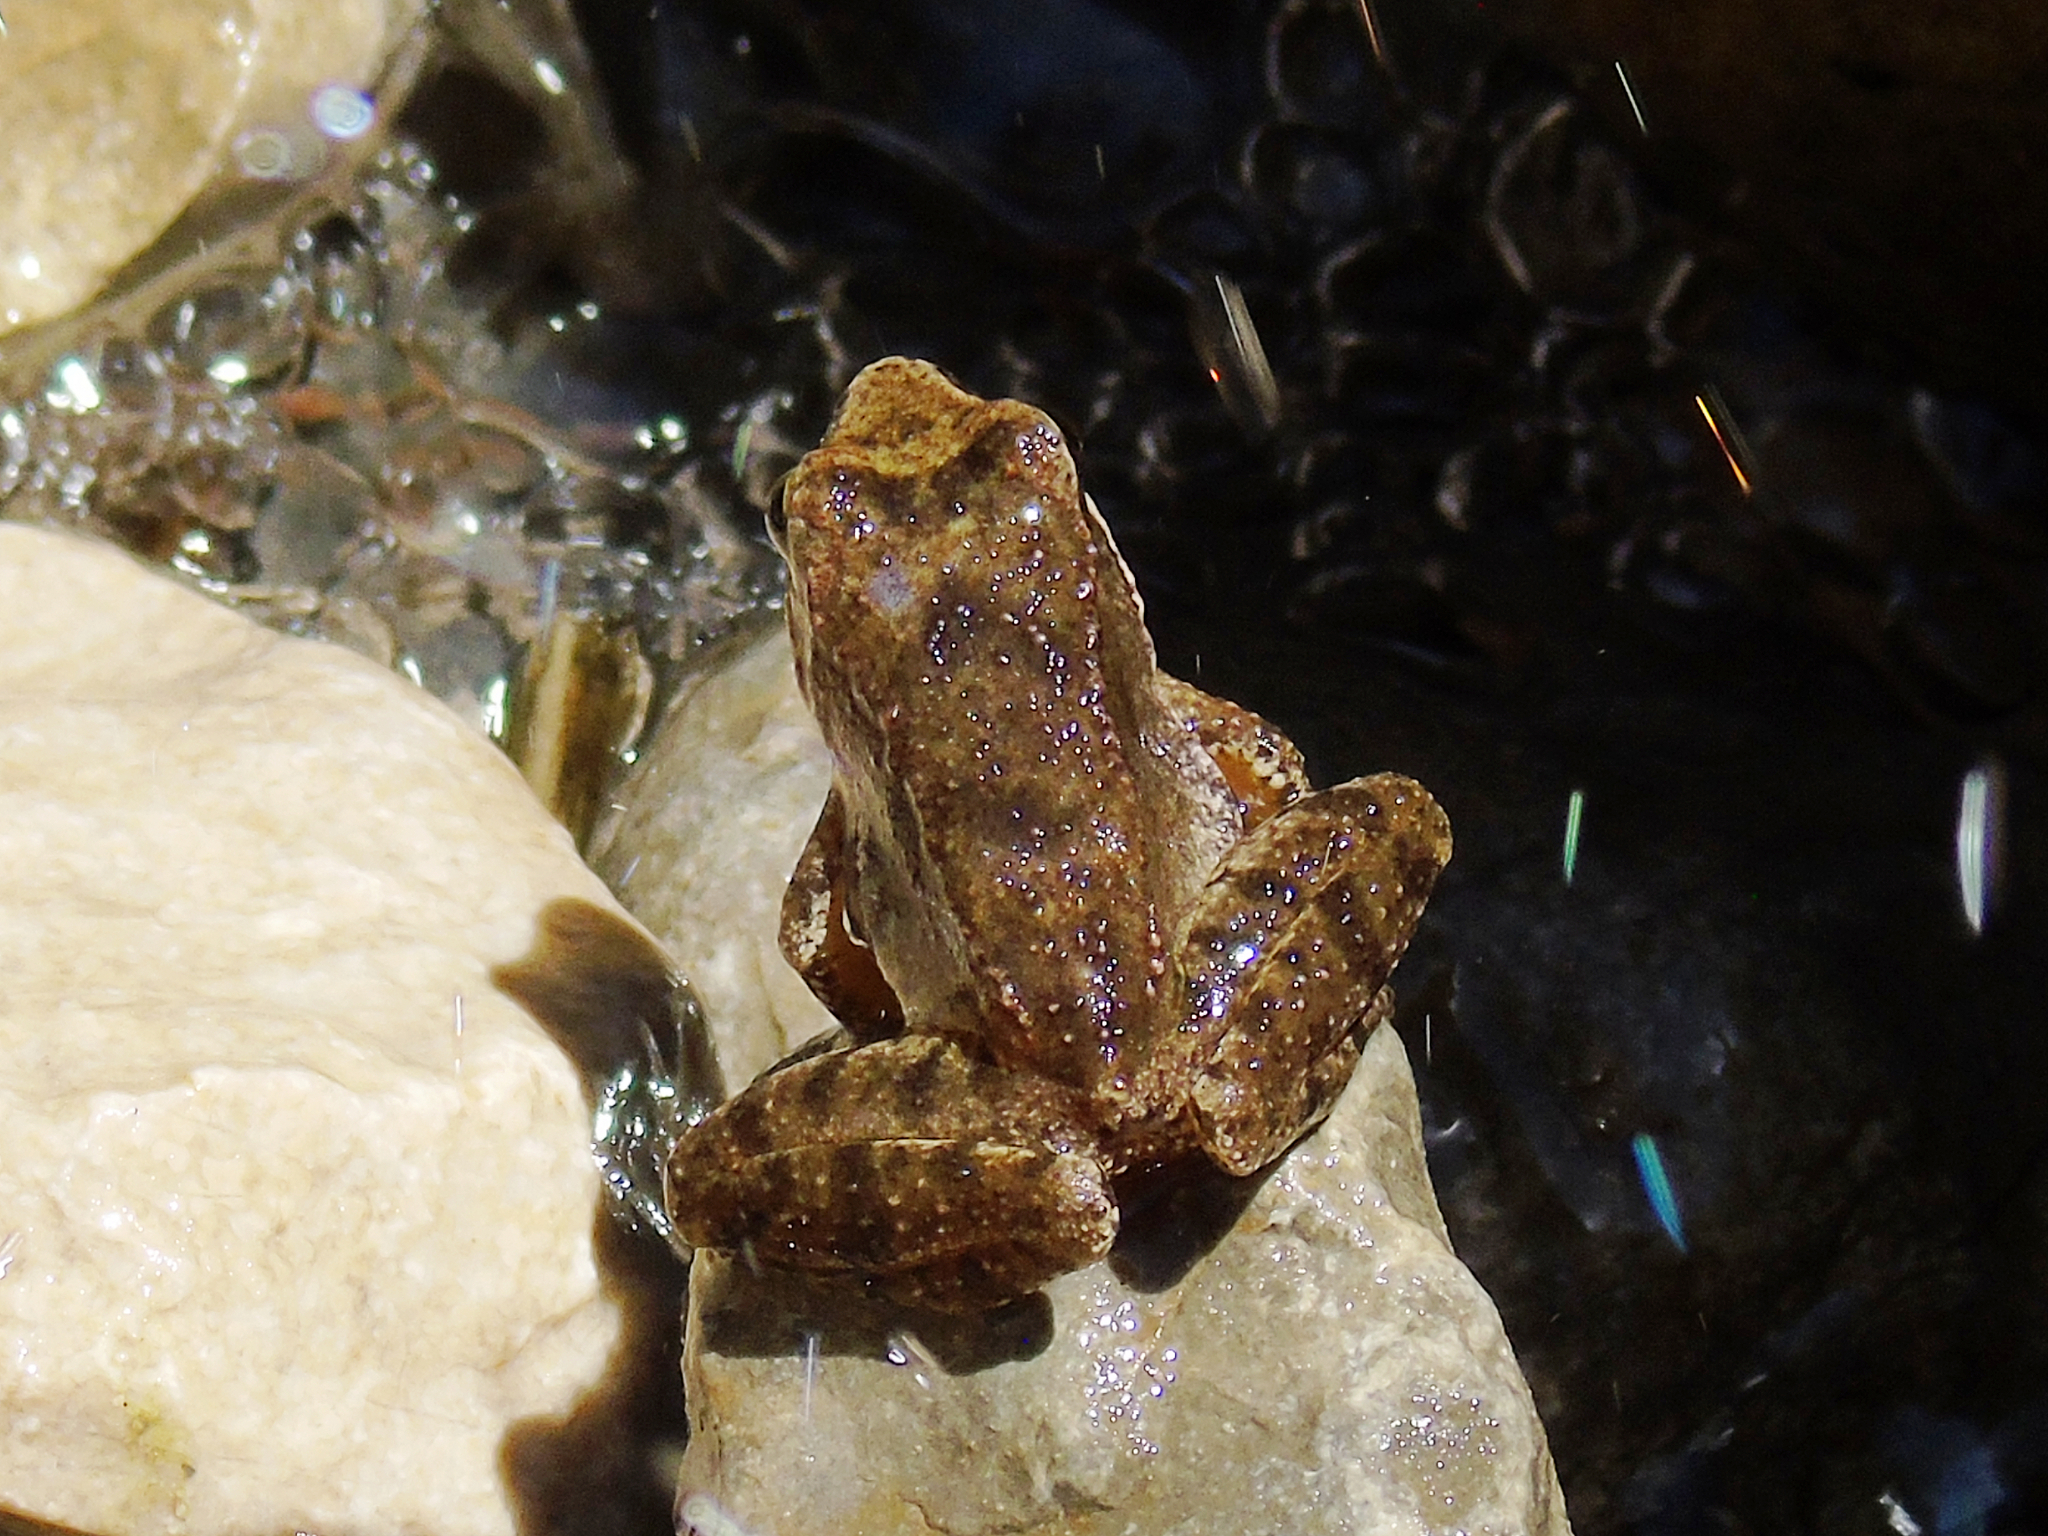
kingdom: Animalia
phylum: Chordata
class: Amphibia
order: Anura
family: Ranidae
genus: Rana
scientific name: Rana graeca
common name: Greek stream frog
